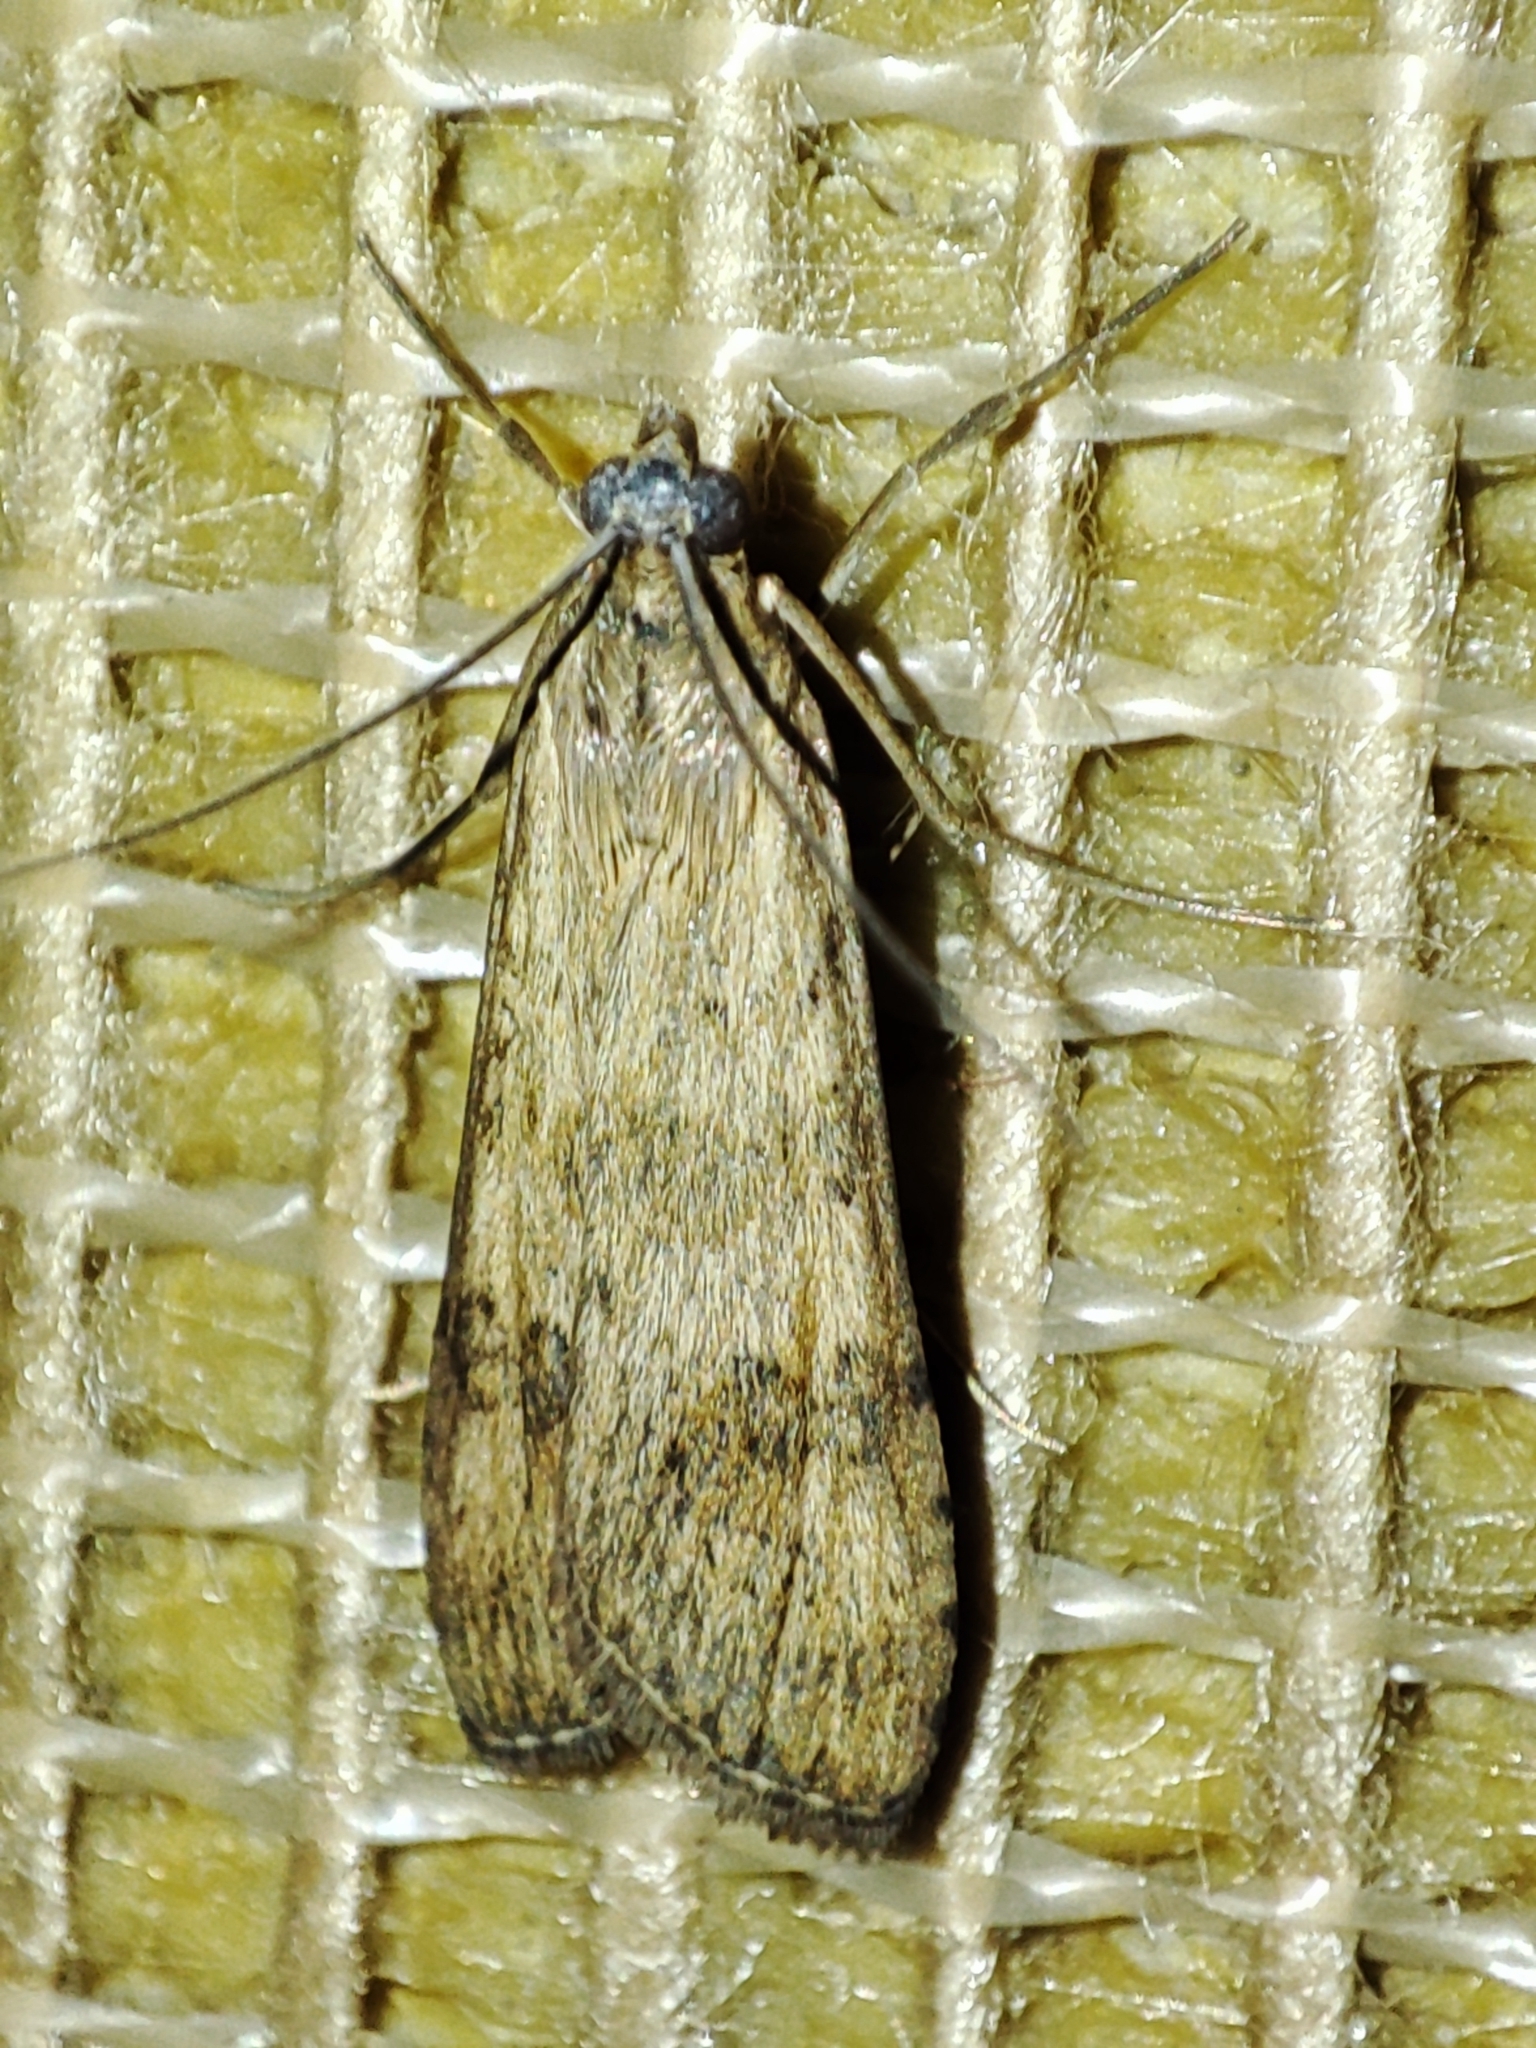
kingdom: Animalia
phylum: Arthropoda
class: Insecta
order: Lepidoptera
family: Crambidae
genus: Nomophila
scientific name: Nomophila noctuella
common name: Rush veneer
